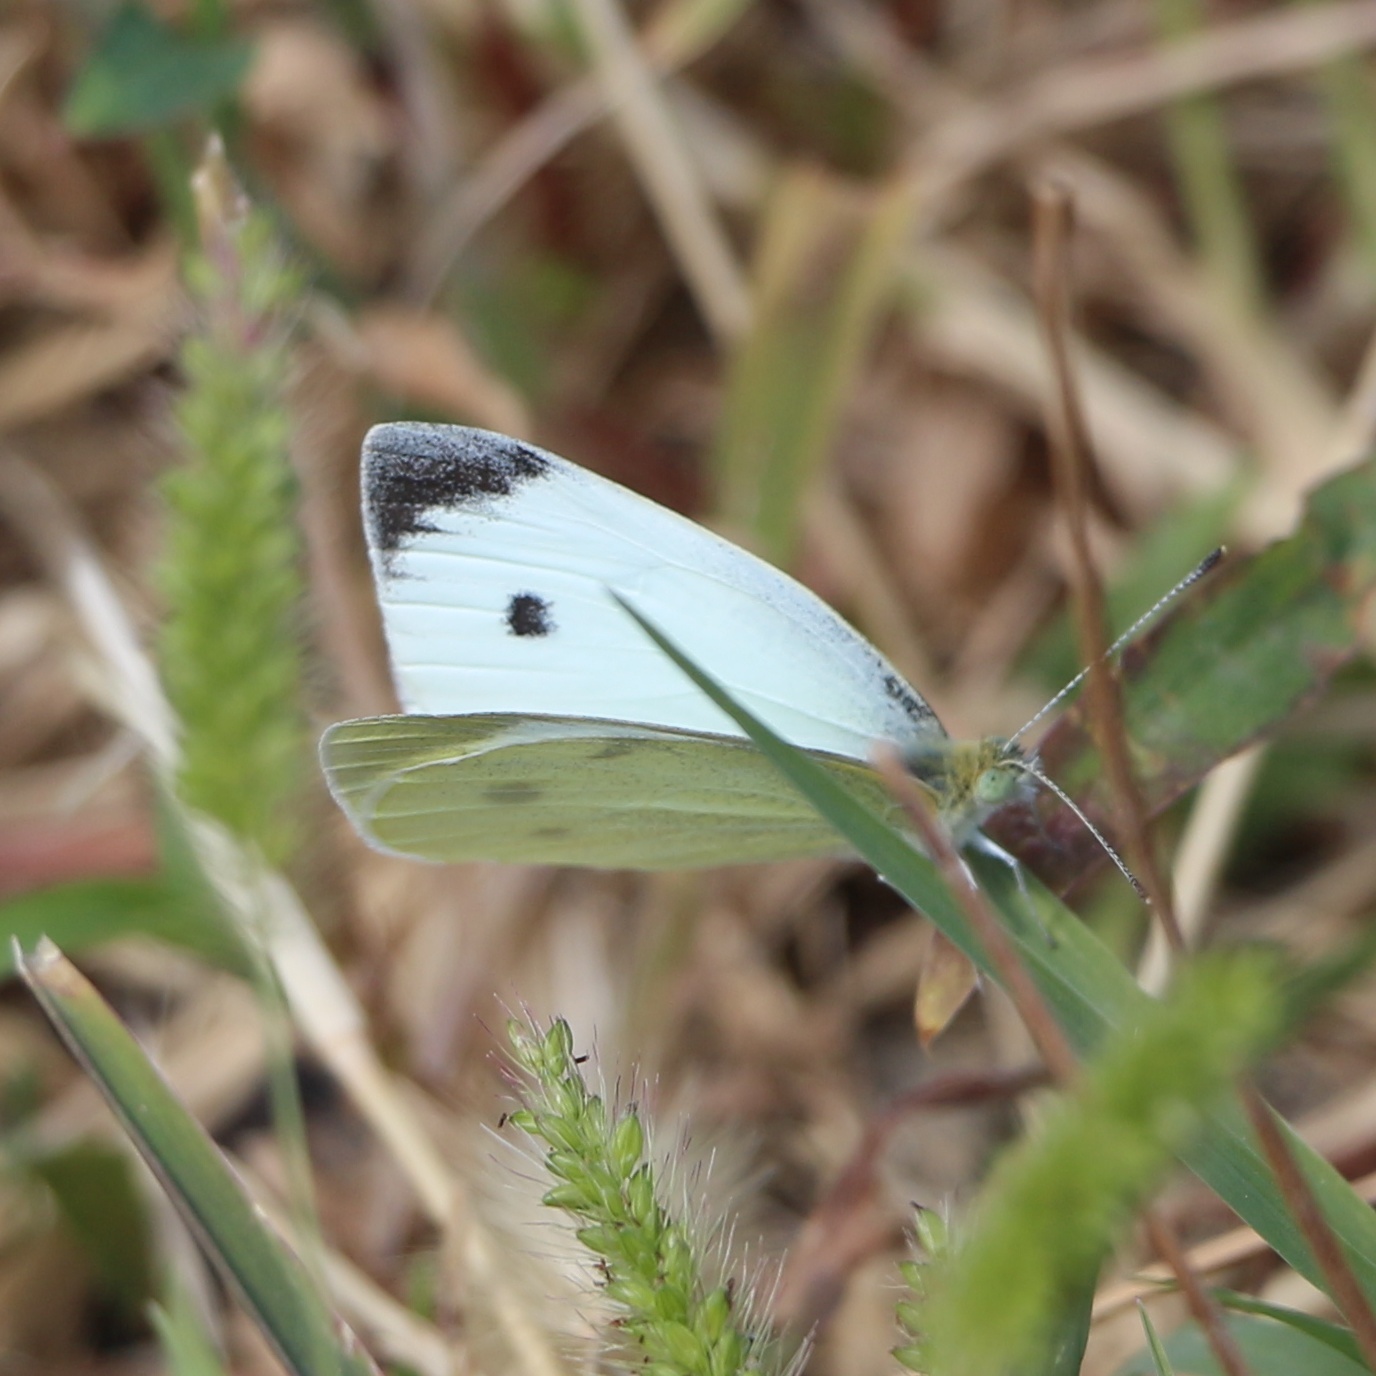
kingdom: Animalia
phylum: Arthropoda
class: Insecta
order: Lepidoptera
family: Pieridae
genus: Pieris
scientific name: Pieris rapae
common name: Small white
